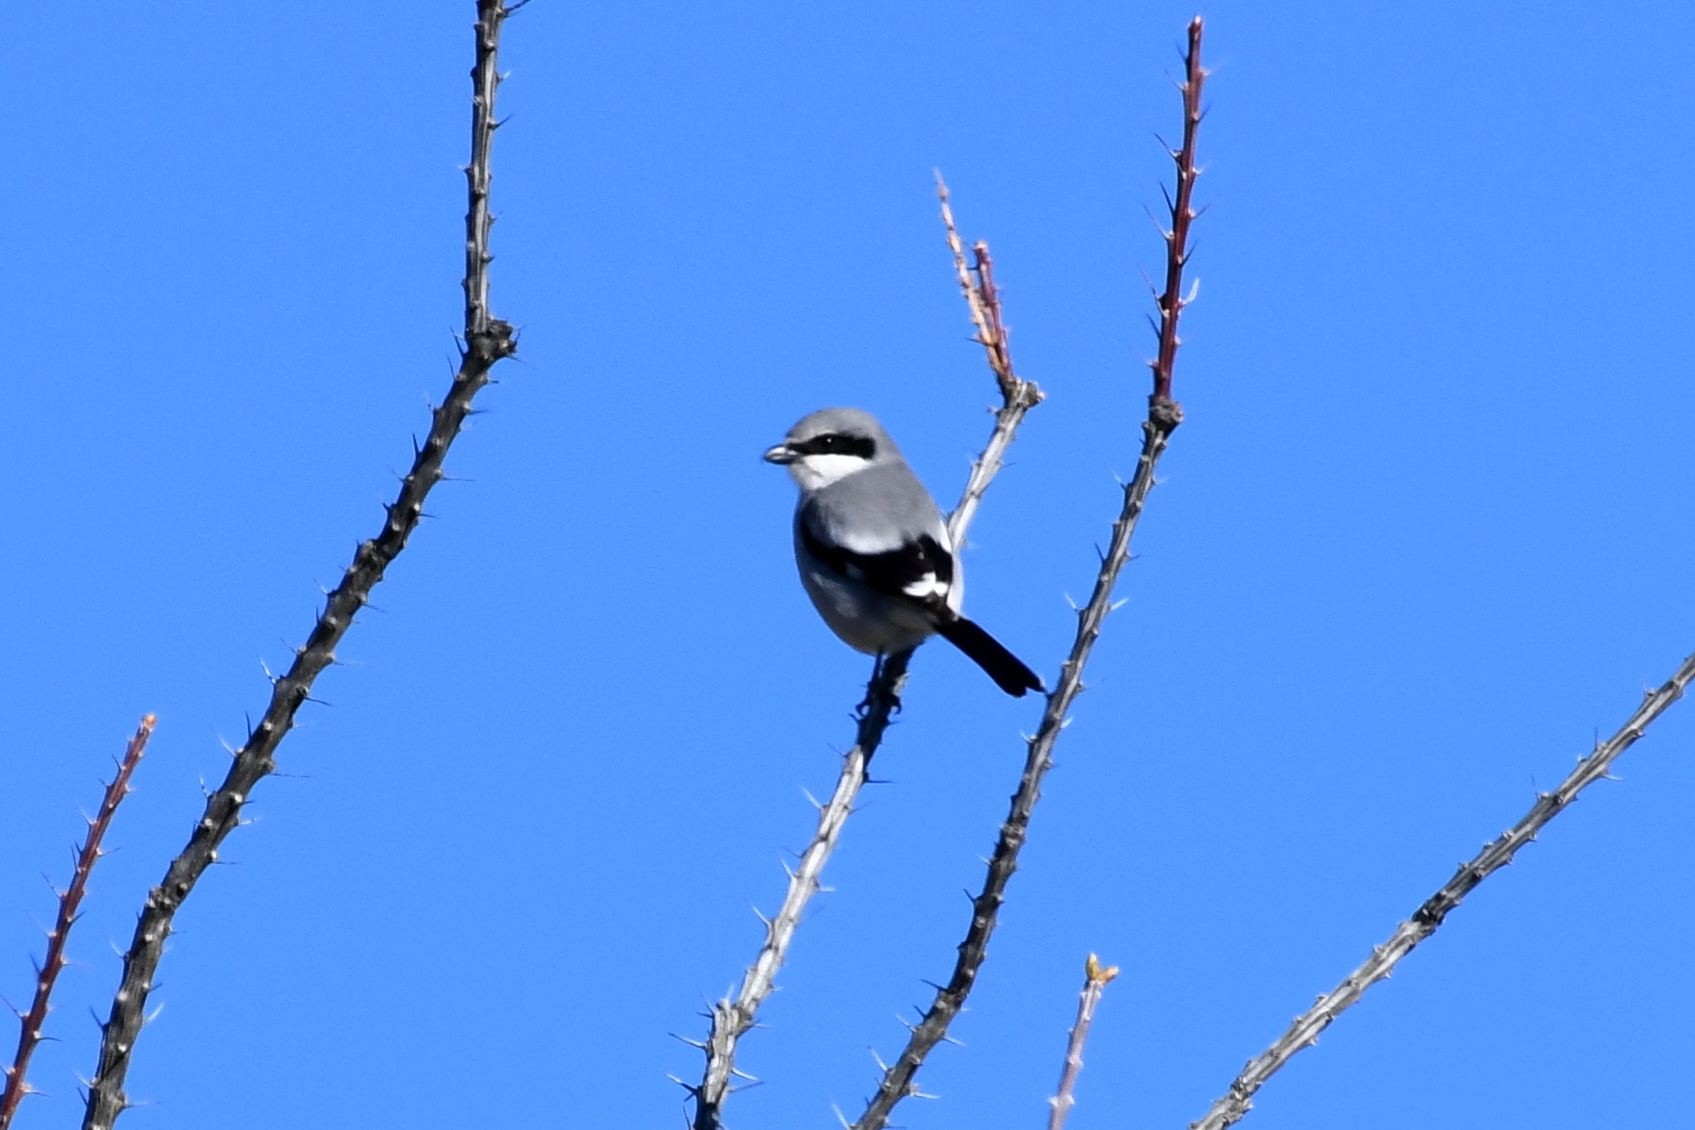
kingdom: Animalia
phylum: Chordata
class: Aves
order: Passeriformes
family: Laniidae
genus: Lanius
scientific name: Lanius ludovicianus
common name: Loggerhead shrike
